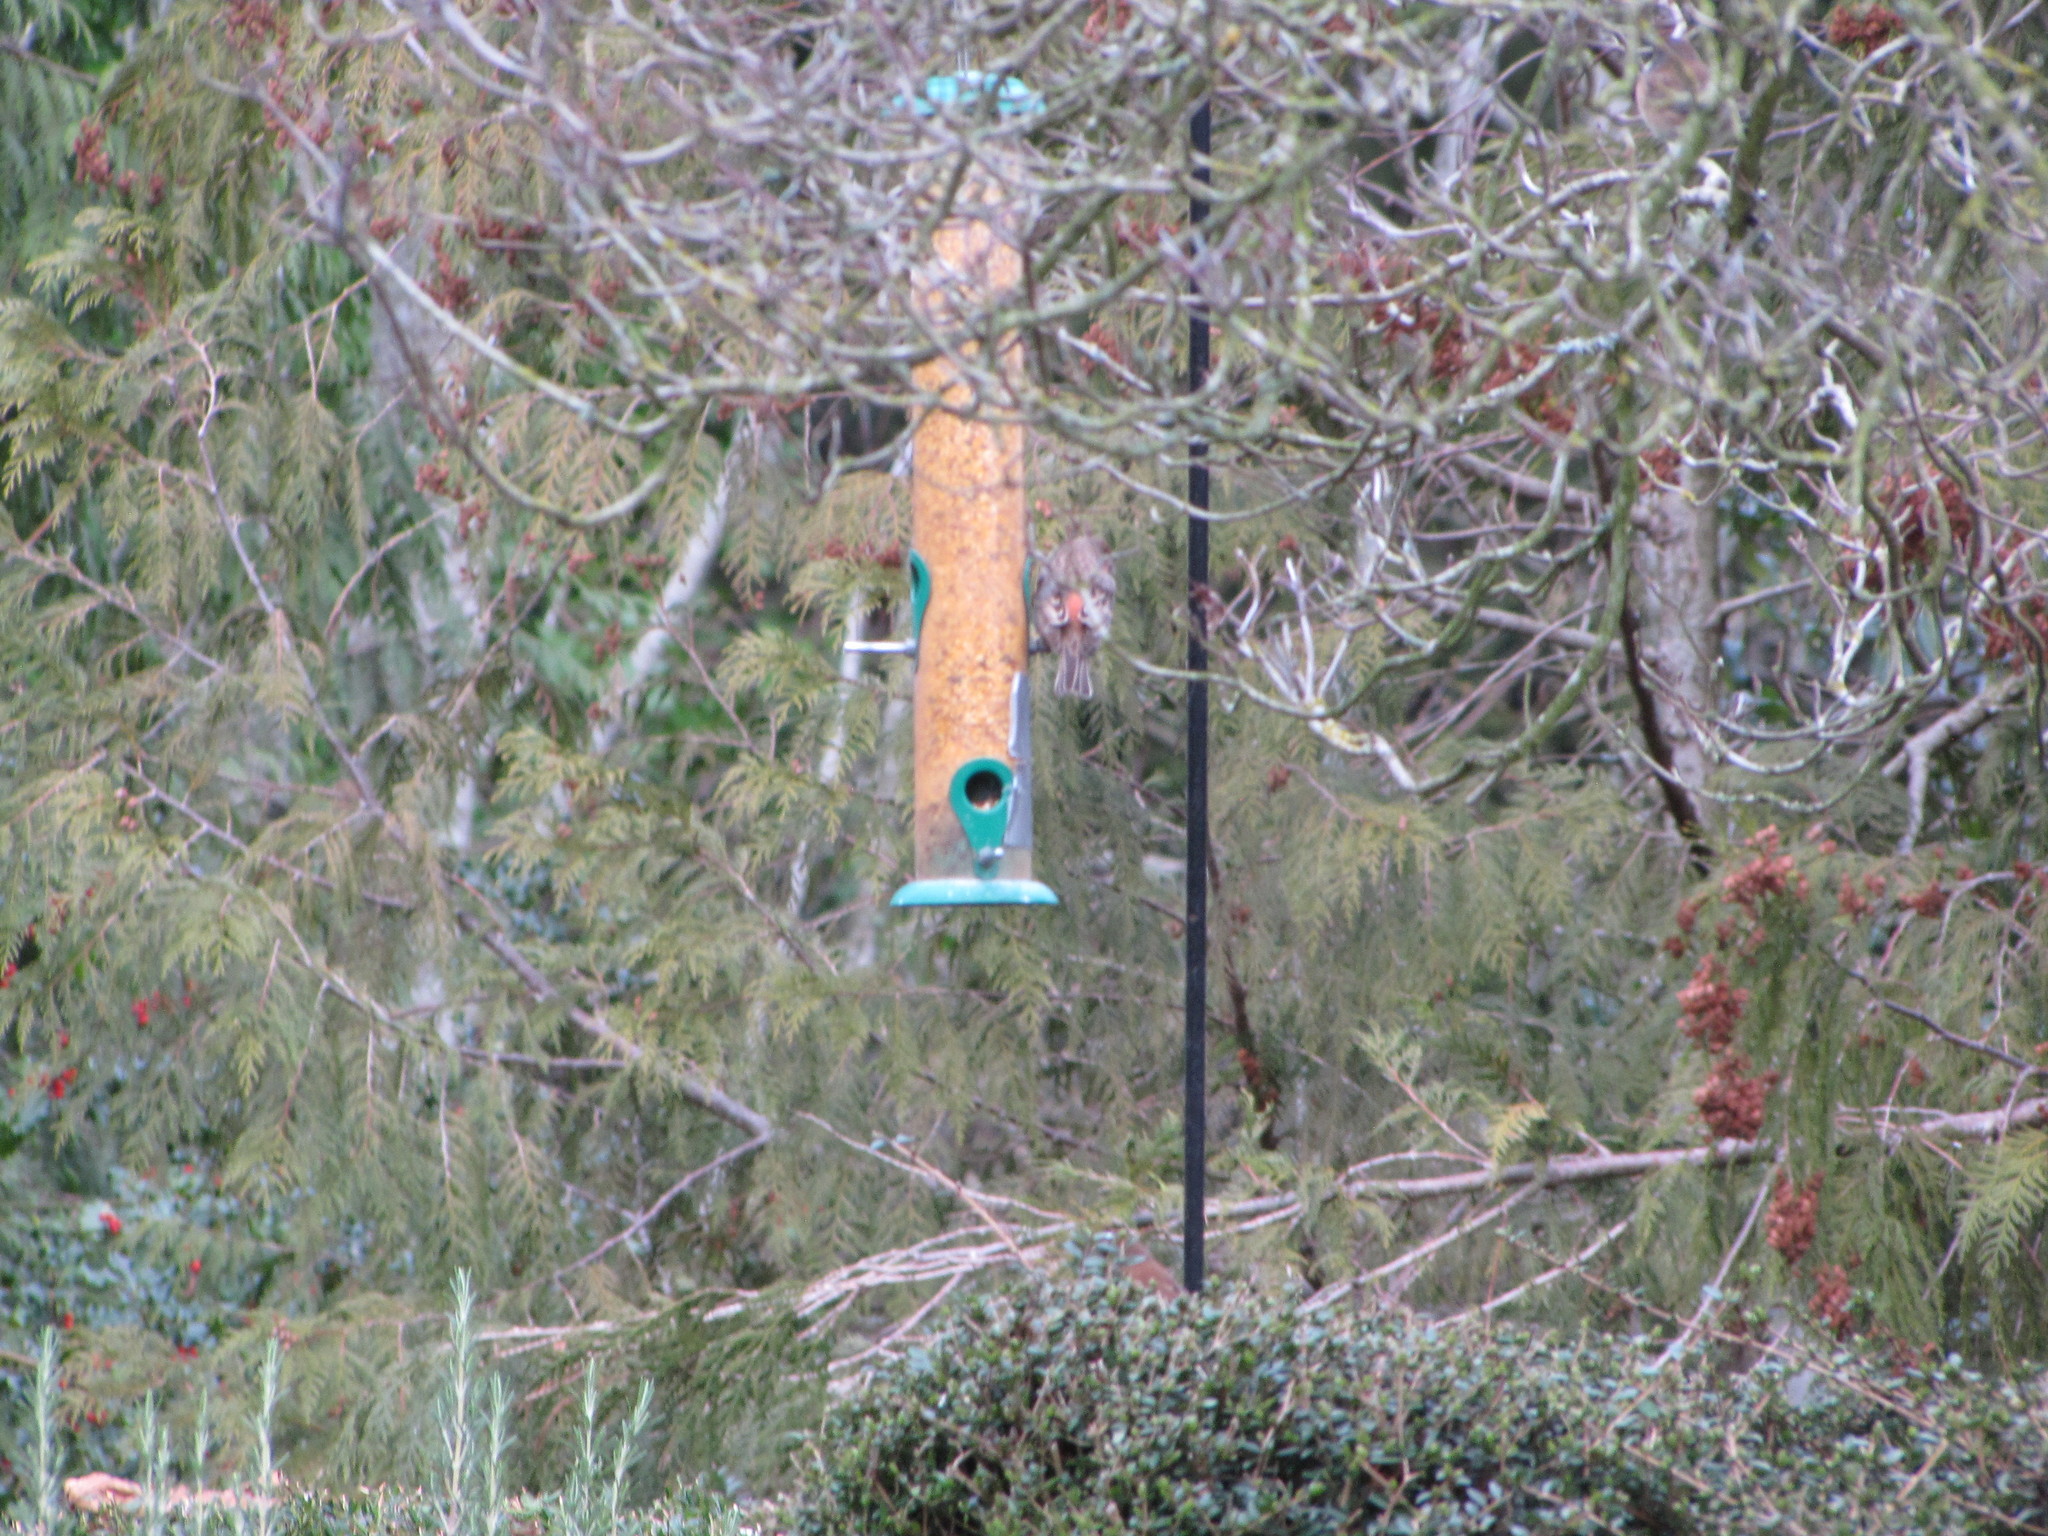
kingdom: Animalia
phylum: Chordata
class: Aves
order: Passeriformes
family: Fringillidae
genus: Haemorhous
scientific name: Haemorhous mexicanus
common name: House finch
